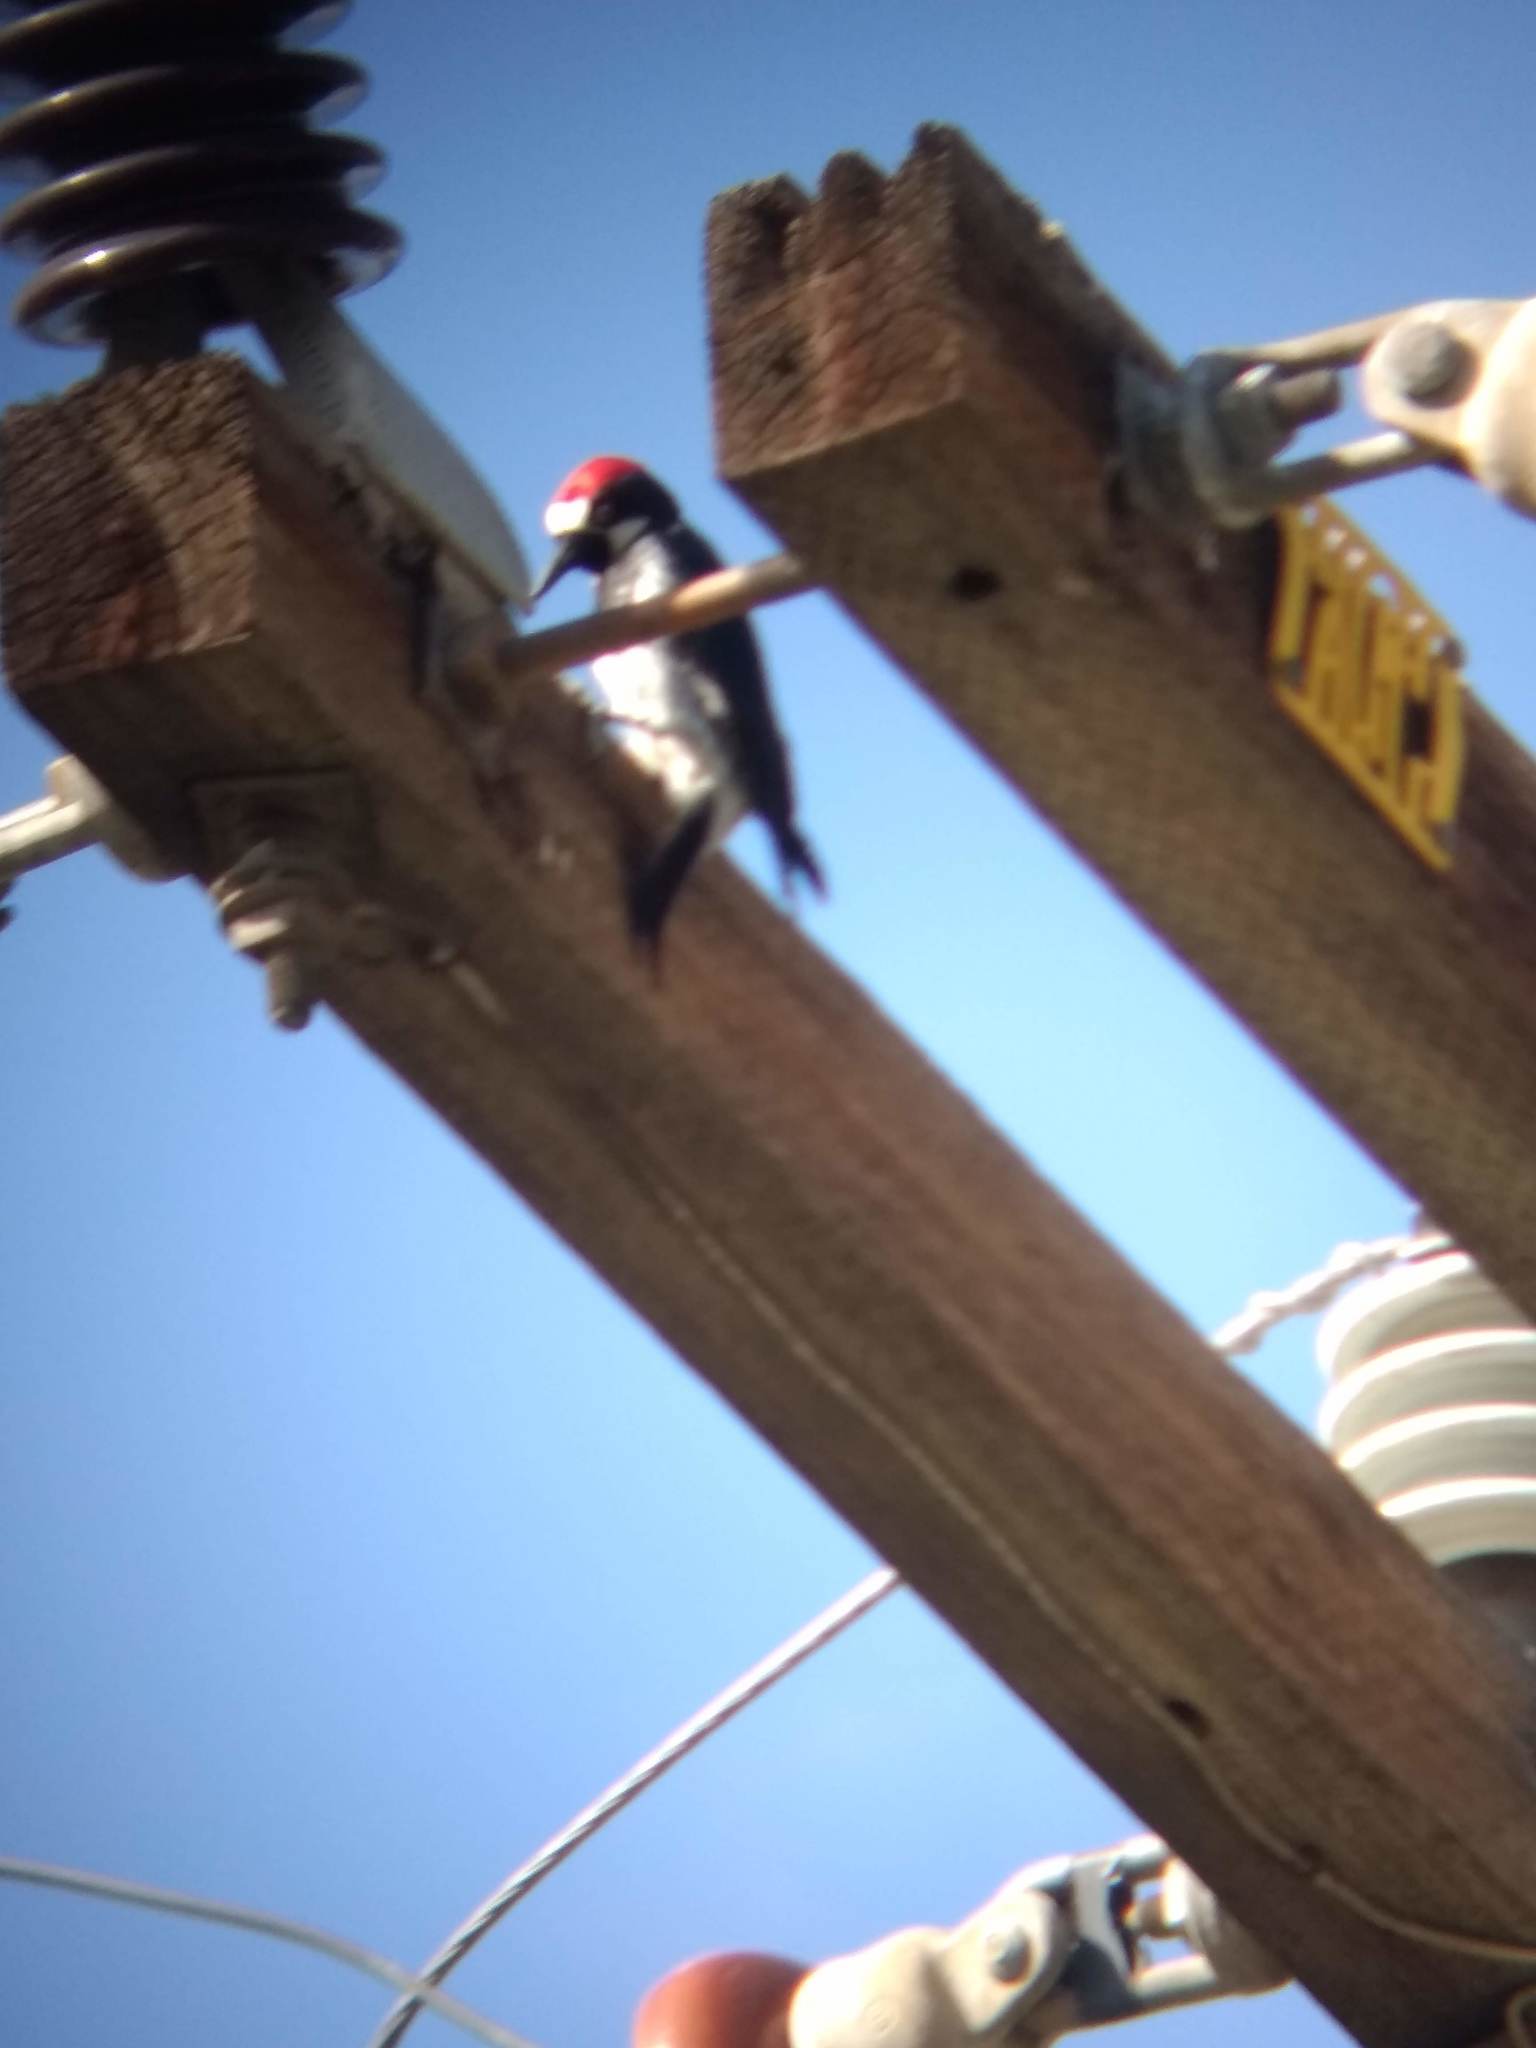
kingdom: Animalia
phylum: Chordata
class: Aves
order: Piciformes
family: Picidae
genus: Melanerpes
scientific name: Melanerpes formicivorus
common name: Acorn woodpecker
